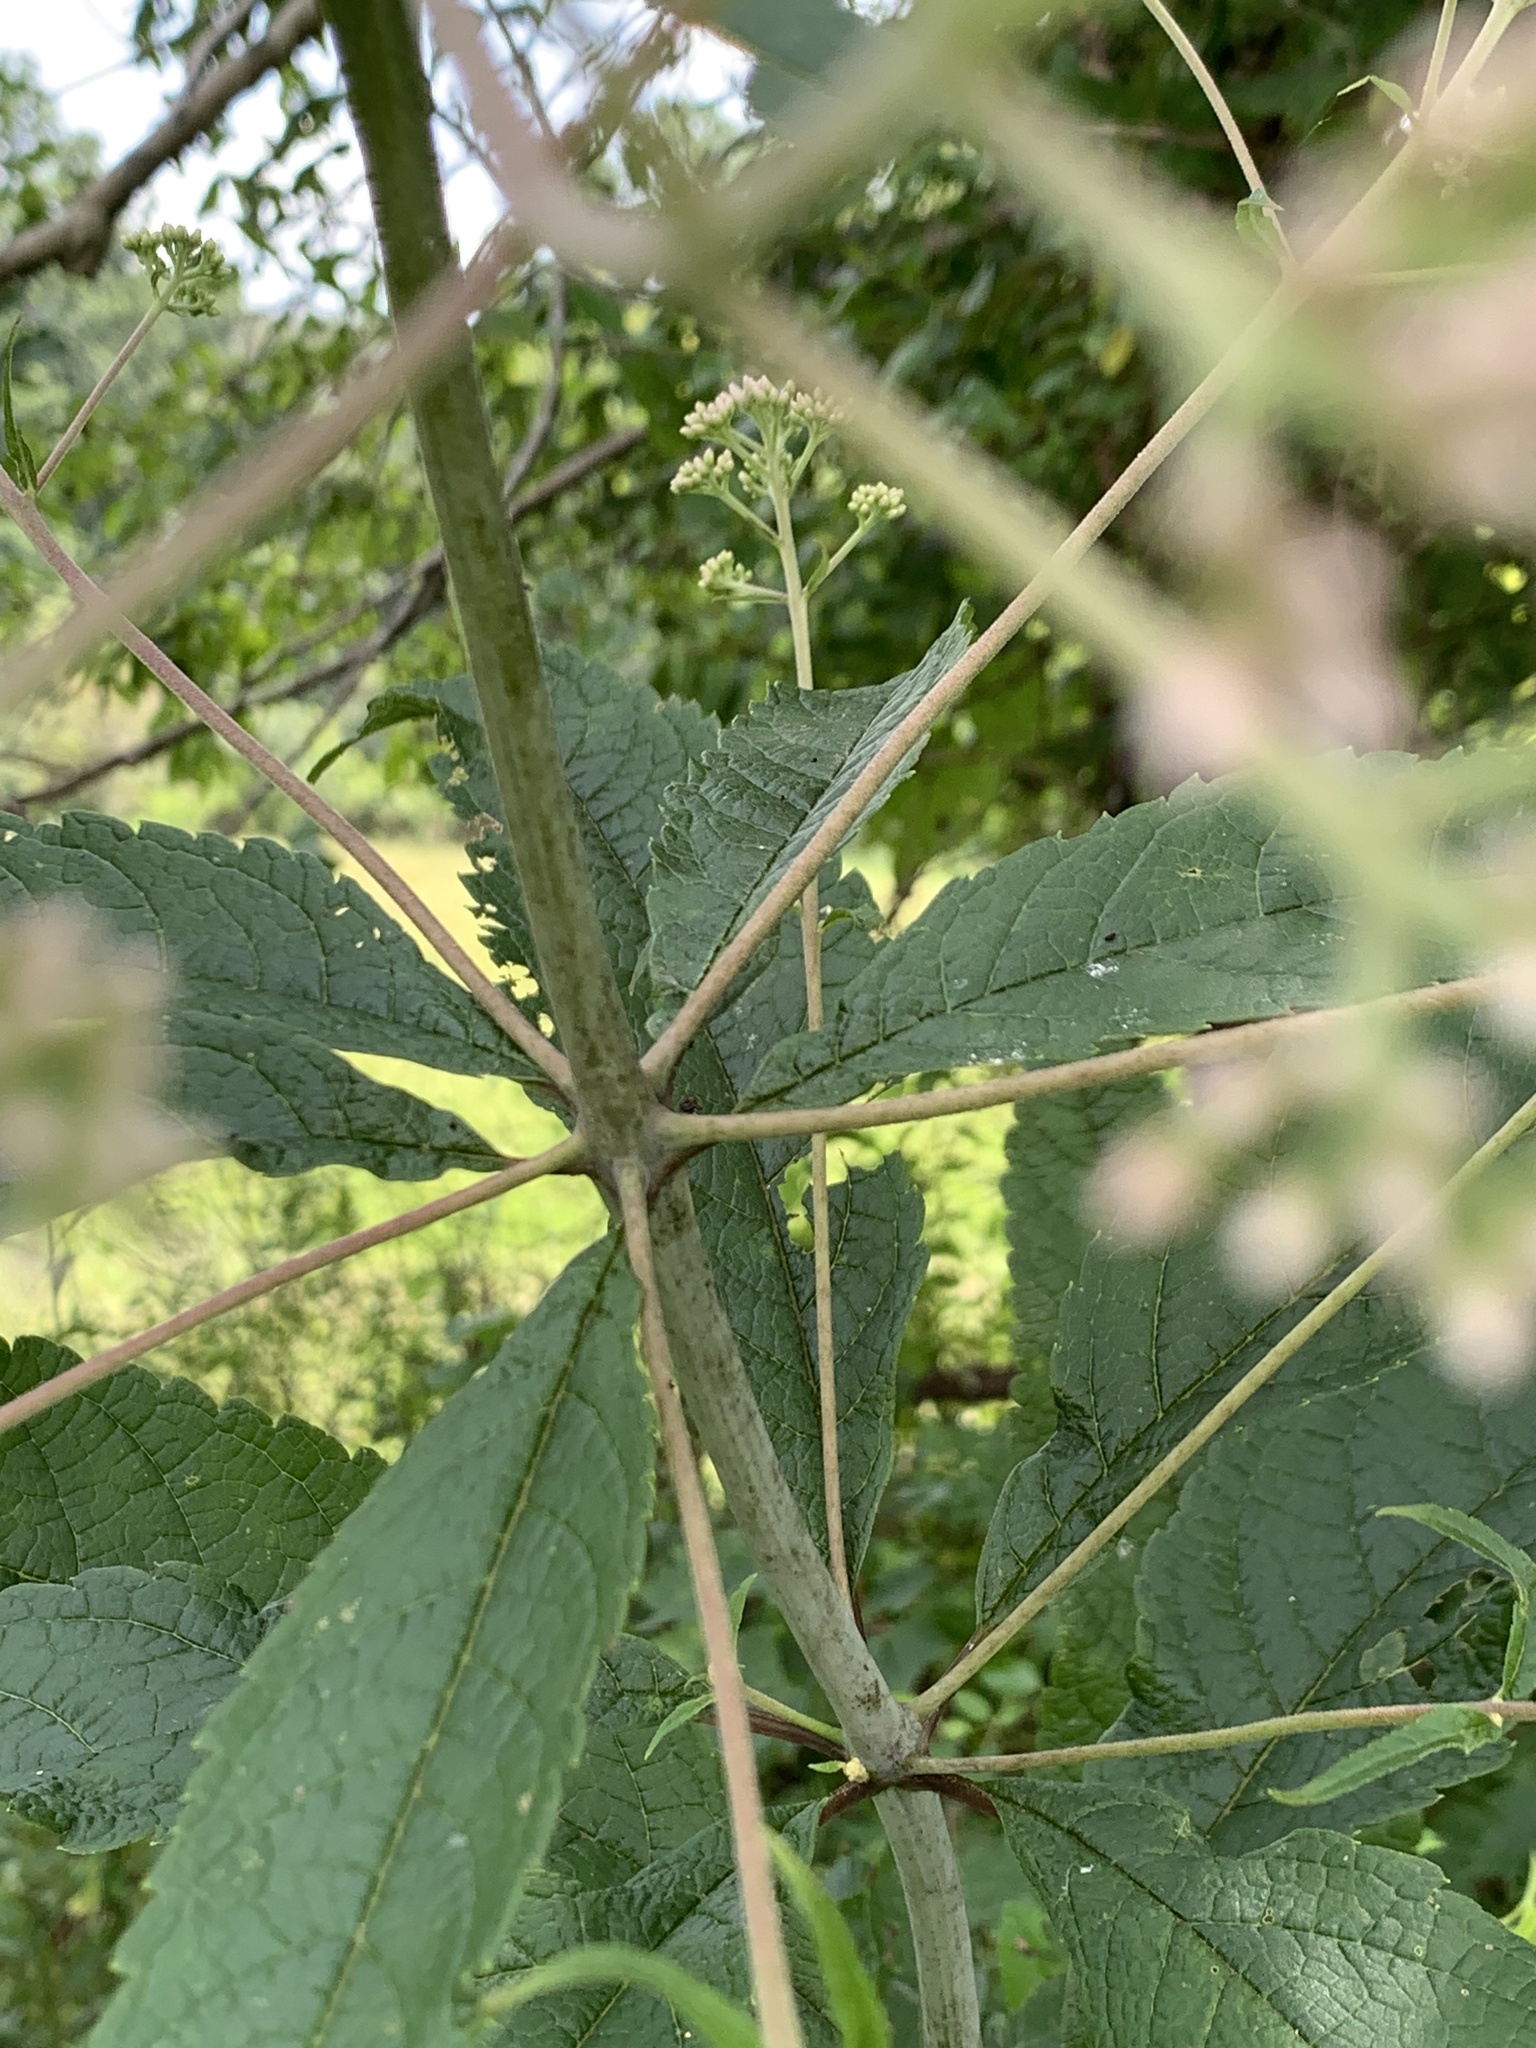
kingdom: Plantae
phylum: Tracheophyta
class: Magnoliopsida
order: Asterales
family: Asteraceae
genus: Eutrochium
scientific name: Eutrochium fistulosum
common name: Trumpetweed
